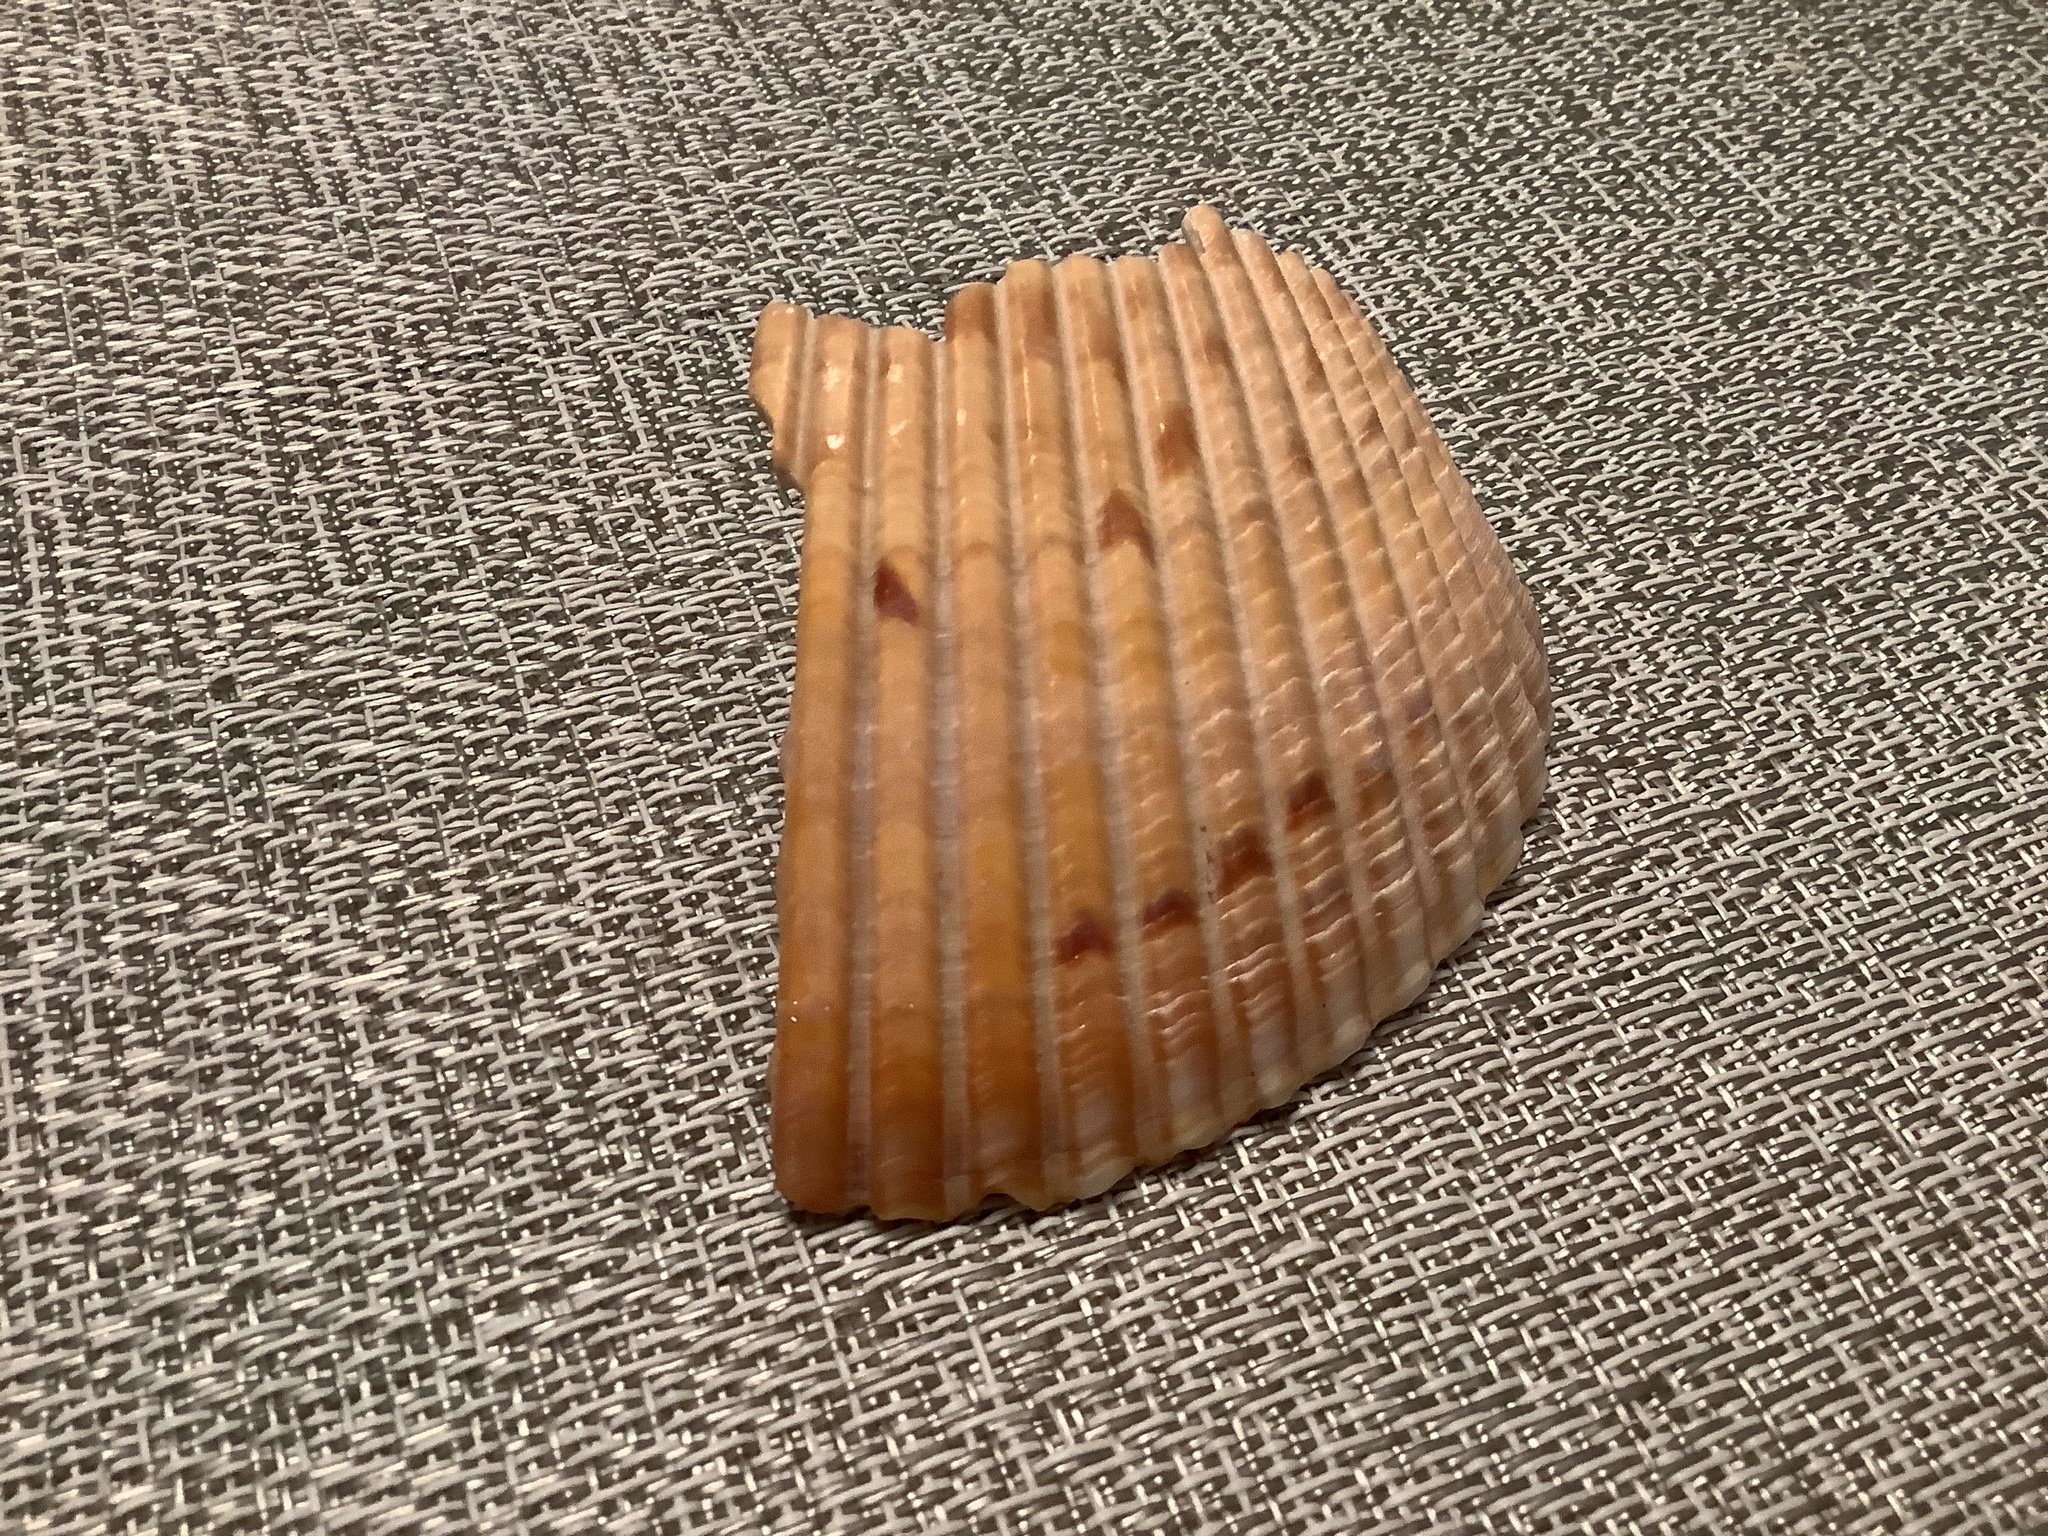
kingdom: Animalia
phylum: Mollusca
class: Bivalvia
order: Cardiida
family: Cardiidae
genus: Dinocardium
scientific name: Dinocardium robustum
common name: Atlantic giant cockle
